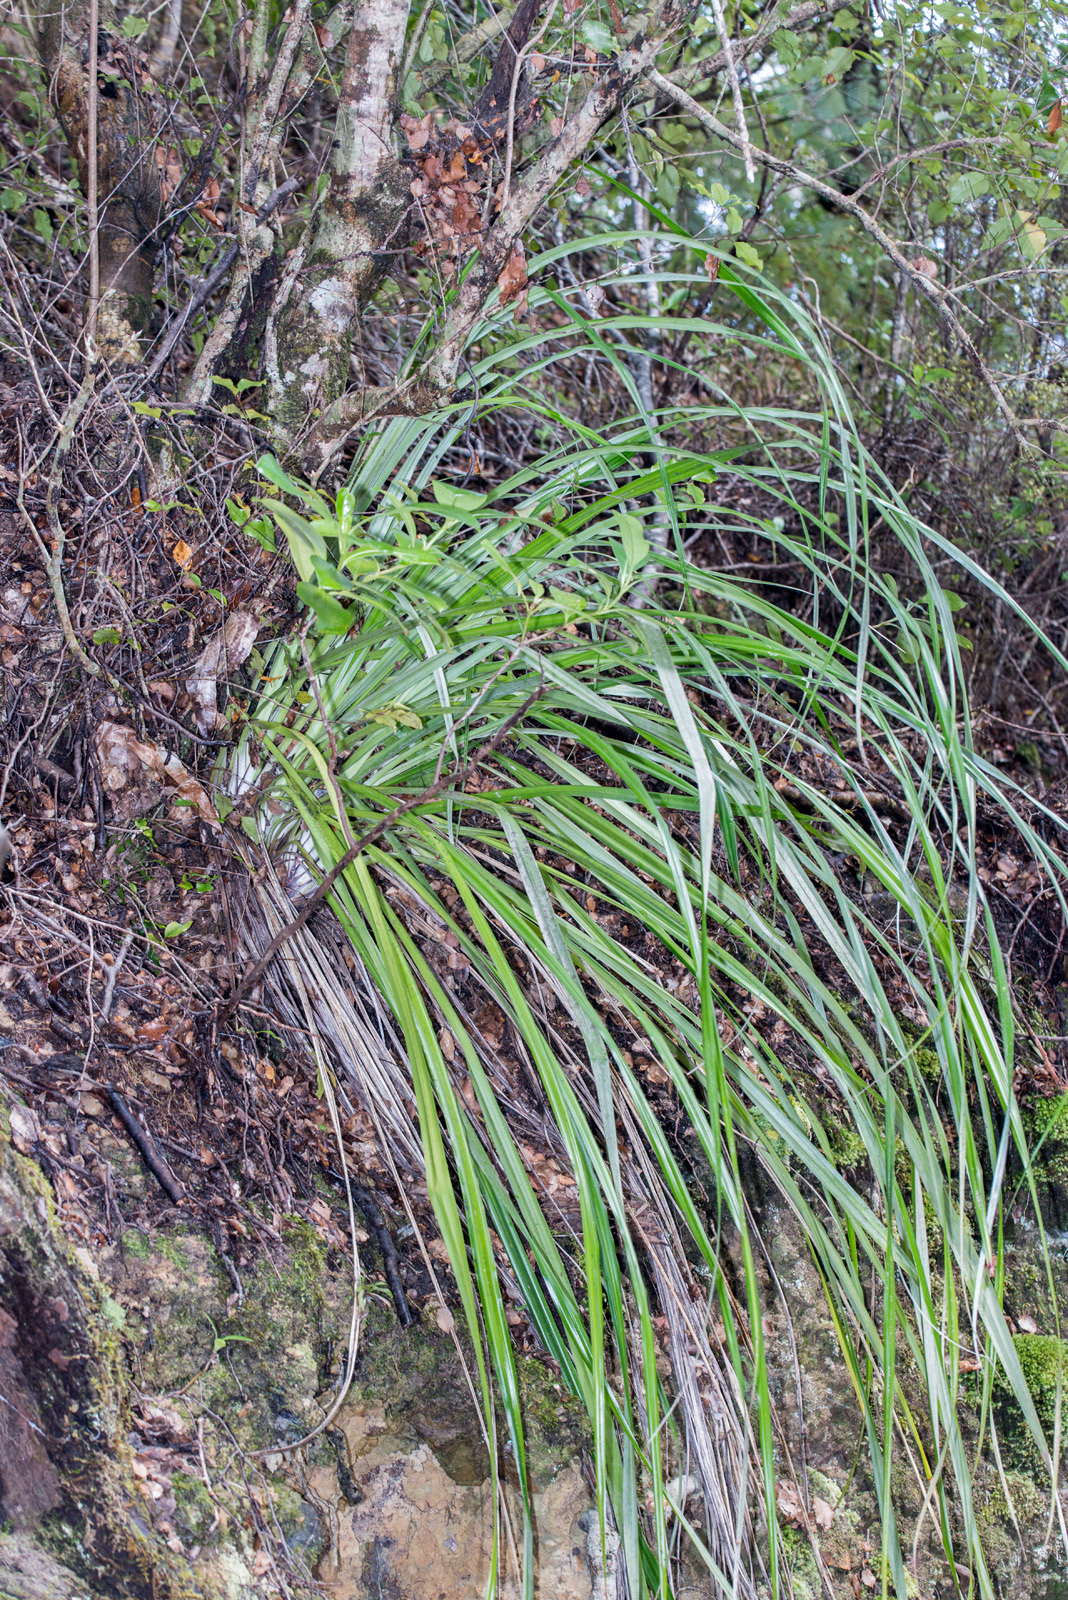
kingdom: Plantae
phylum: Tracheophyta
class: Liliopsida
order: Asparagales
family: Asteliaceae
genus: Astelia
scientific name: Astelia solandri
